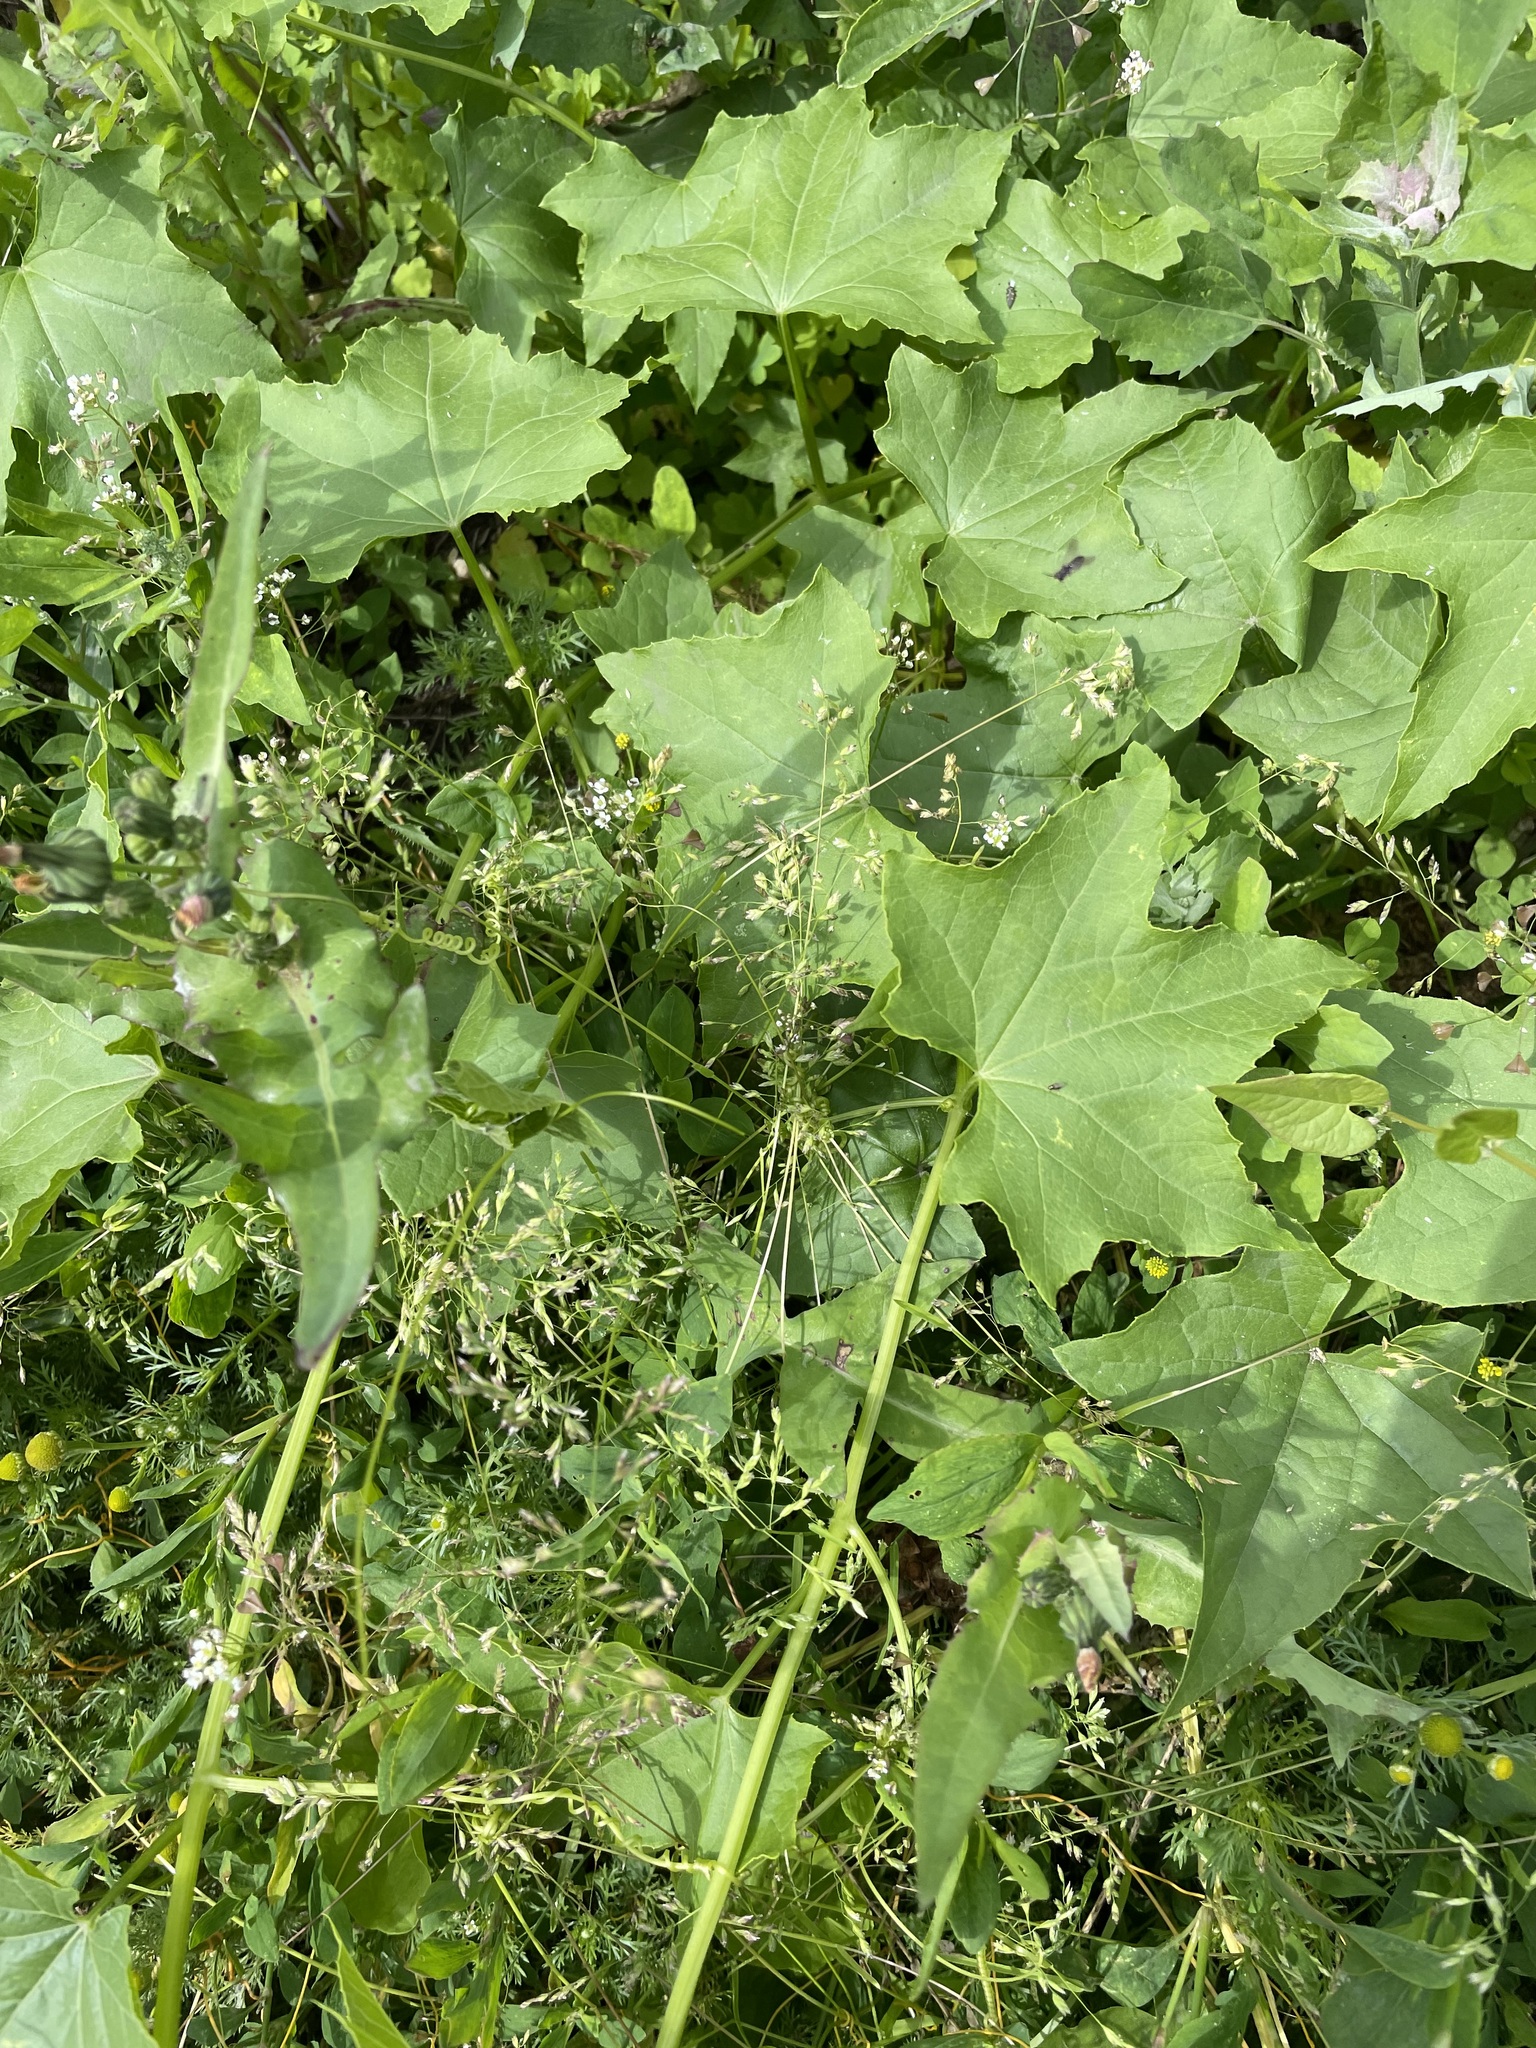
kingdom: Plantae
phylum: Tracheophyta
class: Magnoliopsida
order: Cucurbitales
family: Cucurbitaceae
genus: Echinocystis
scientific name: Echinocystis lobata
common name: Wild cucumber
